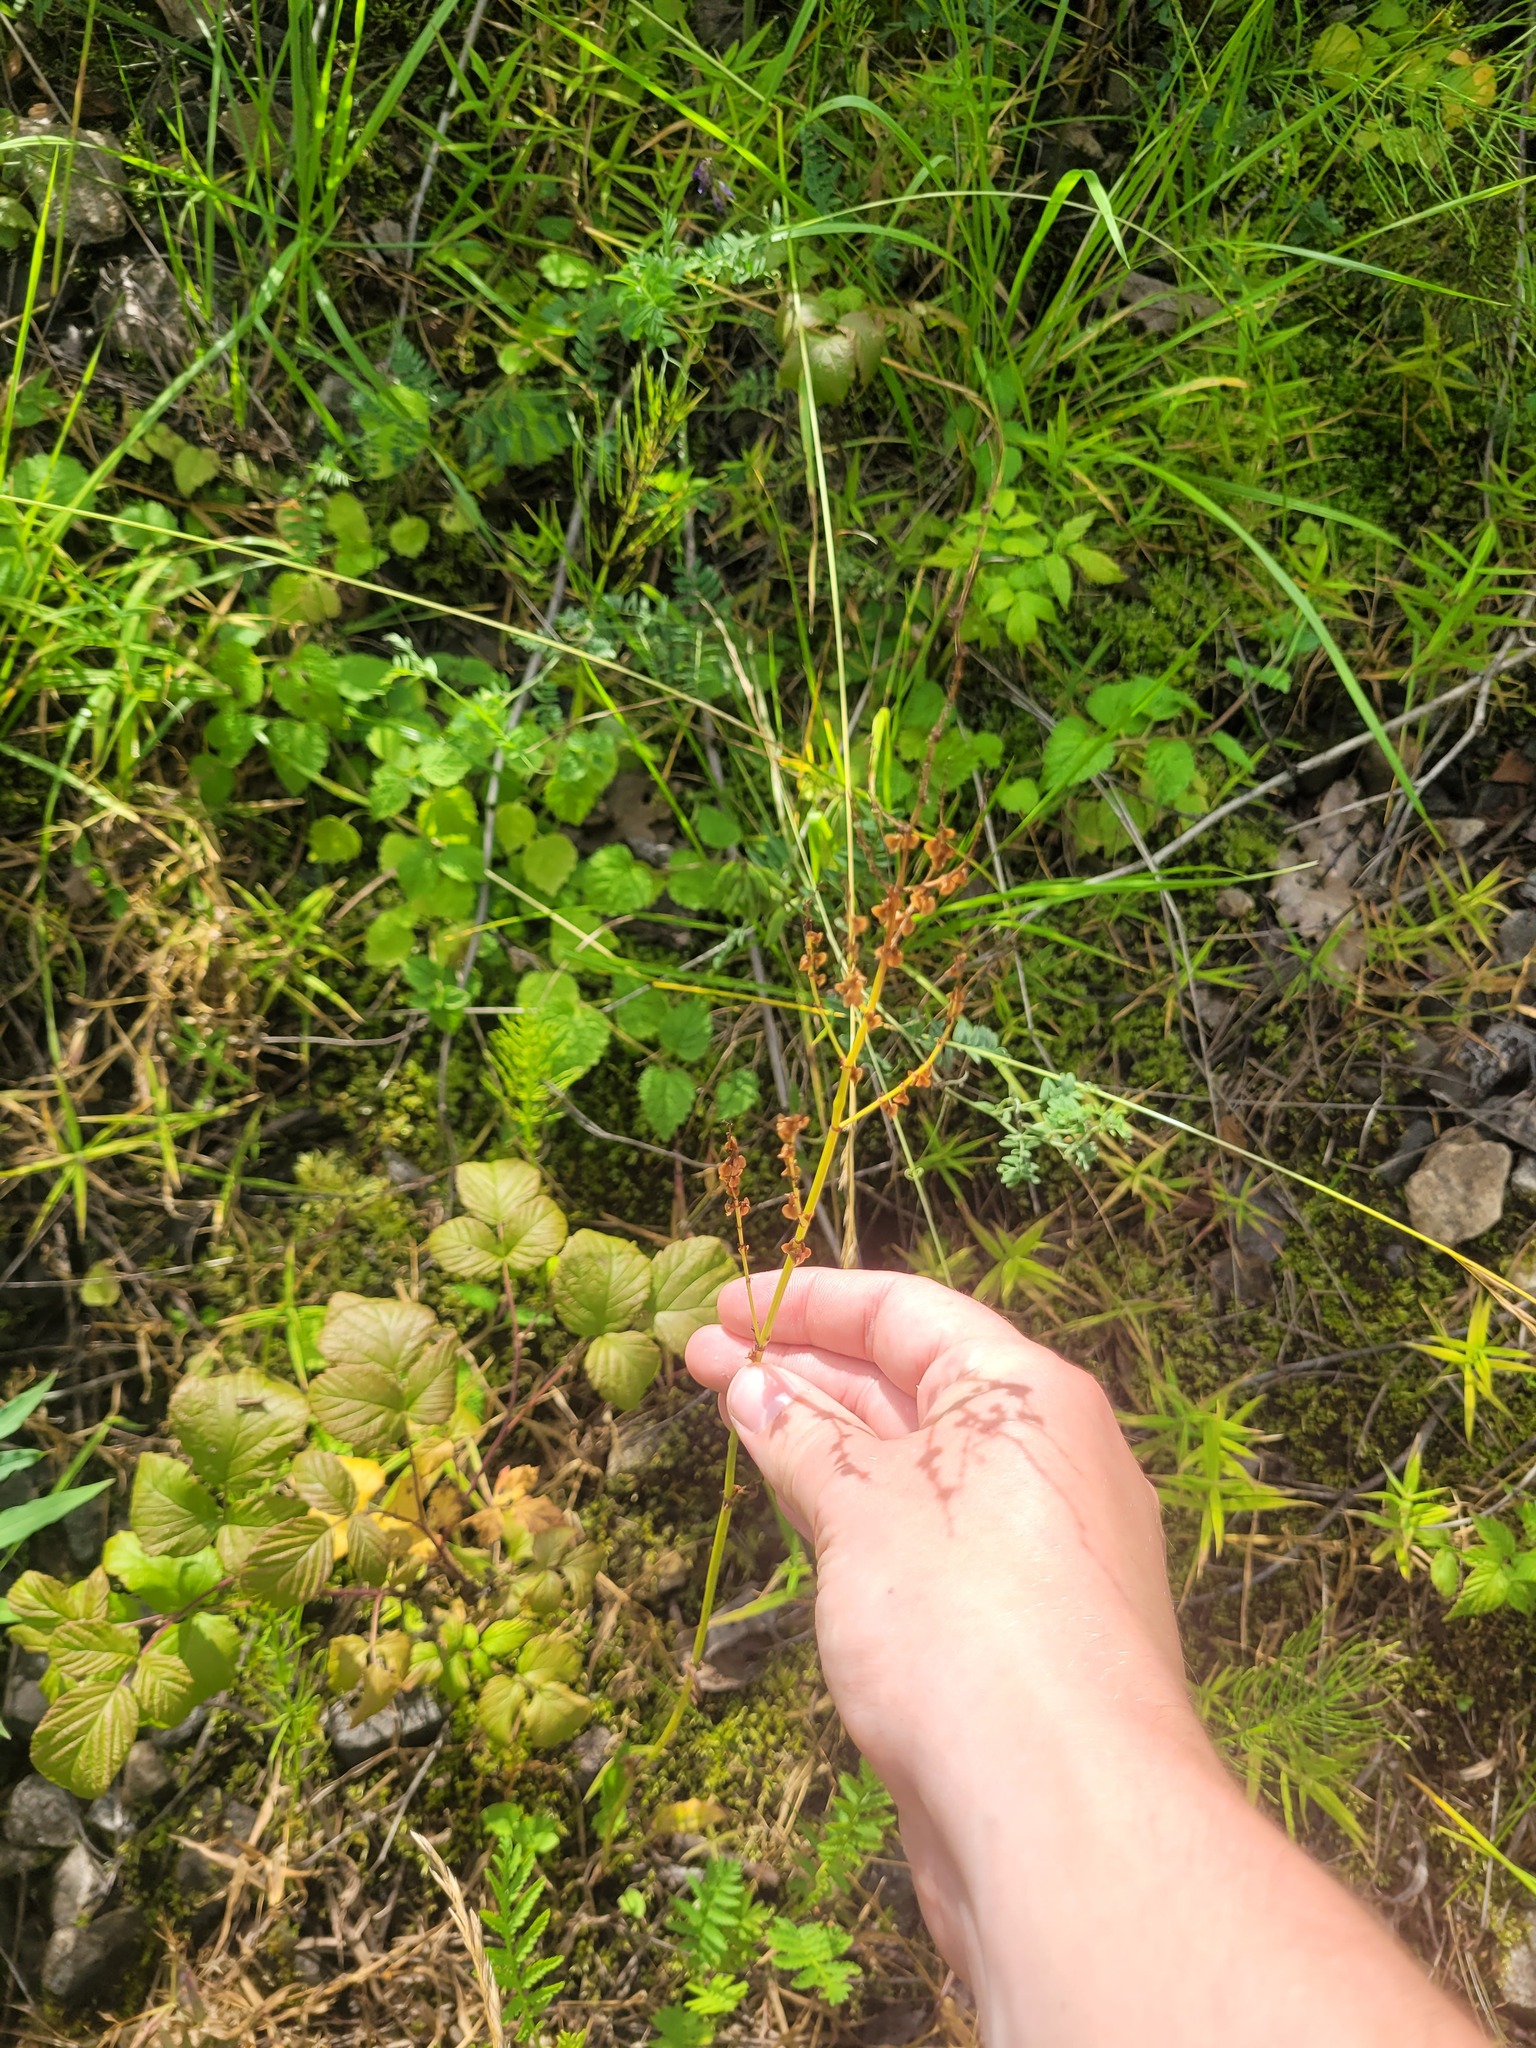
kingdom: Plantae
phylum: Tracheophyta
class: Magnoliopsida
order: Caryophyllales
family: Polygonaceae
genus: Rumex
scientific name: Rumex acetosa
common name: Garden sorrel
